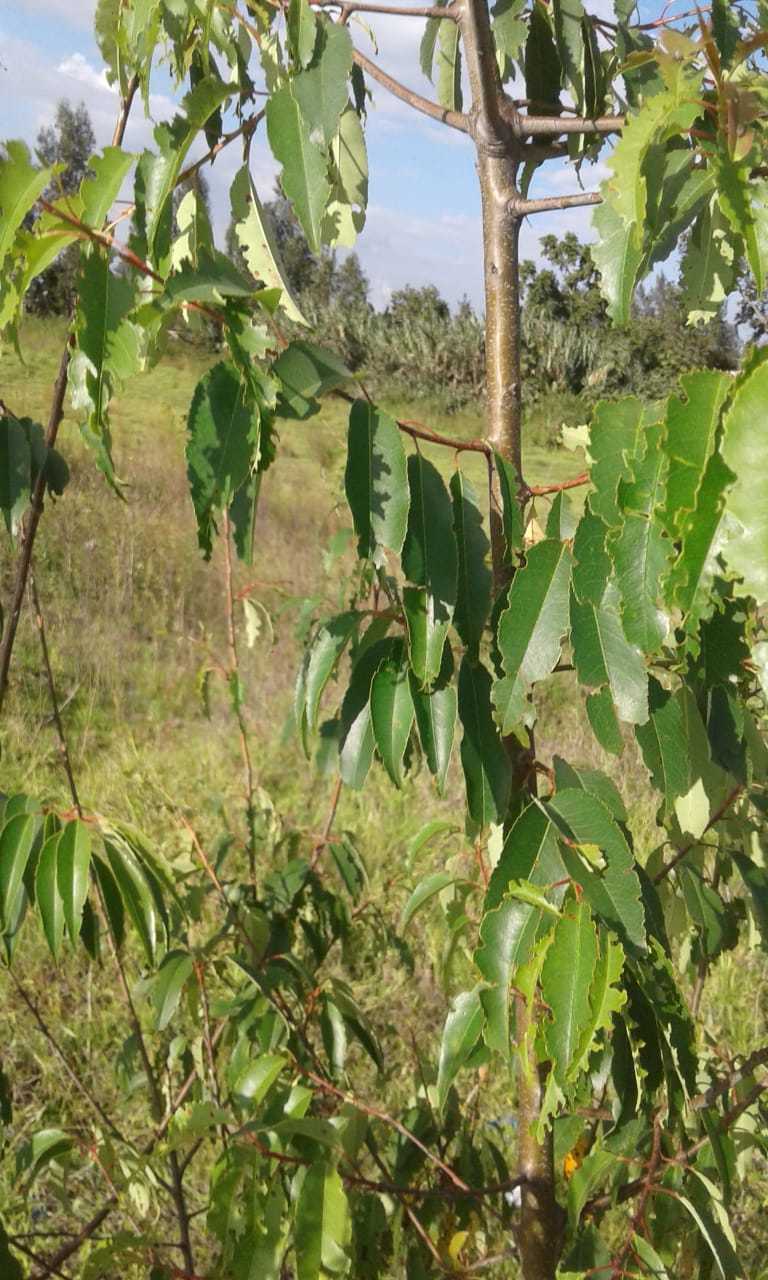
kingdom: Plantae
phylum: Tracheophyta
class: Magnoliopsida
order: Rosales
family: Rosaceae
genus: Prunus
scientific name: Prunus serotina
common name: Black cherry
